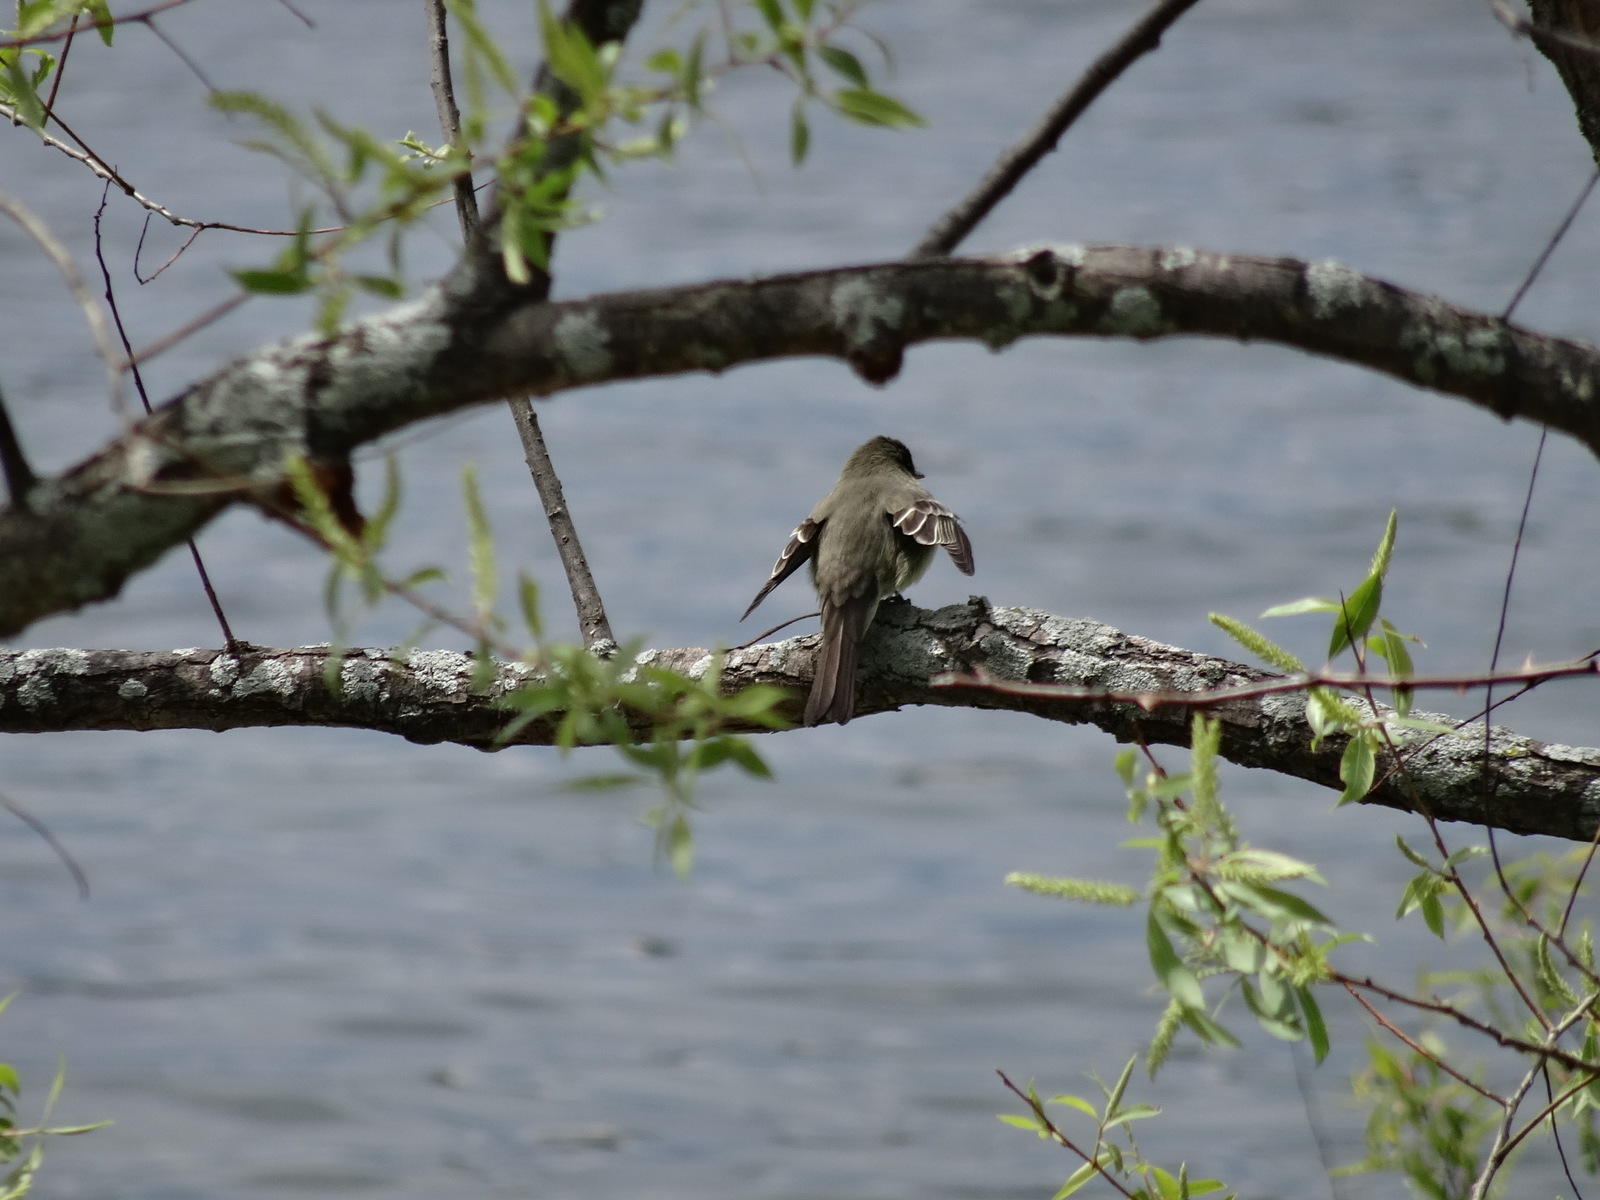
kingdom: Animalia
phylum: Chordata
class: Aves
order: Passeriformes
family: Tyrannidae
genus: Contopus
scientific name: Contopus virens
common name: Eastern wood-pewee
